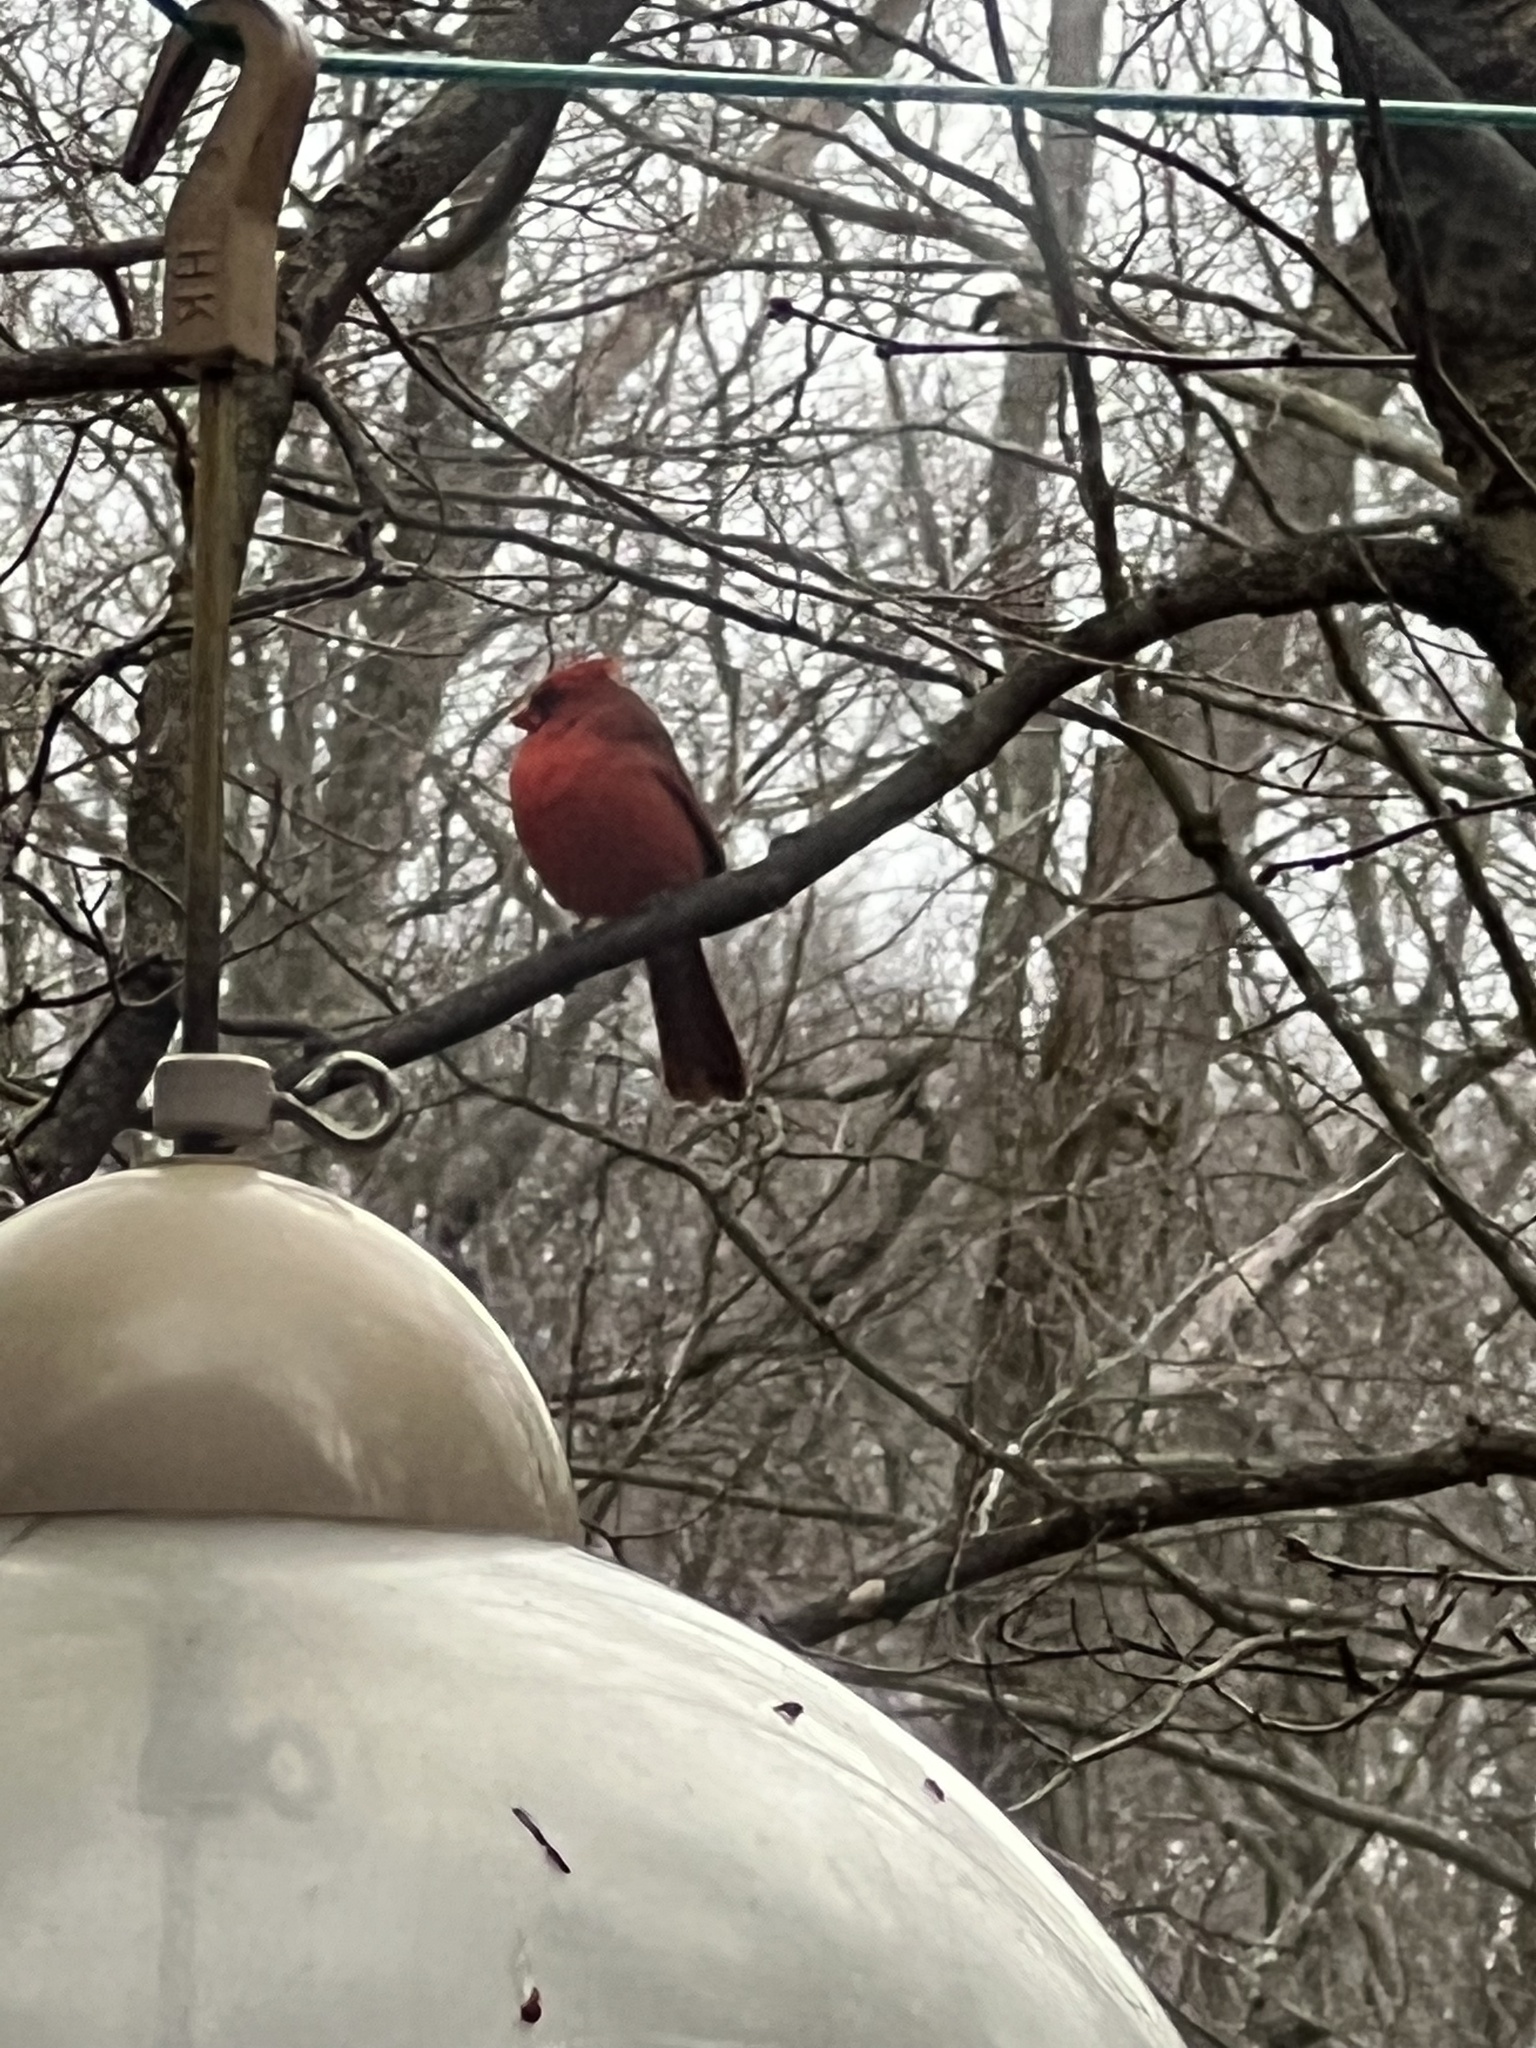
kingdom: Animalia
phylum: Chordata
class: Aves
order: Passeriformes
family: Cardinalidae
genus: Cardinalis
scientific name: Cardinalis cardinalis
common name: Northern cardinal
